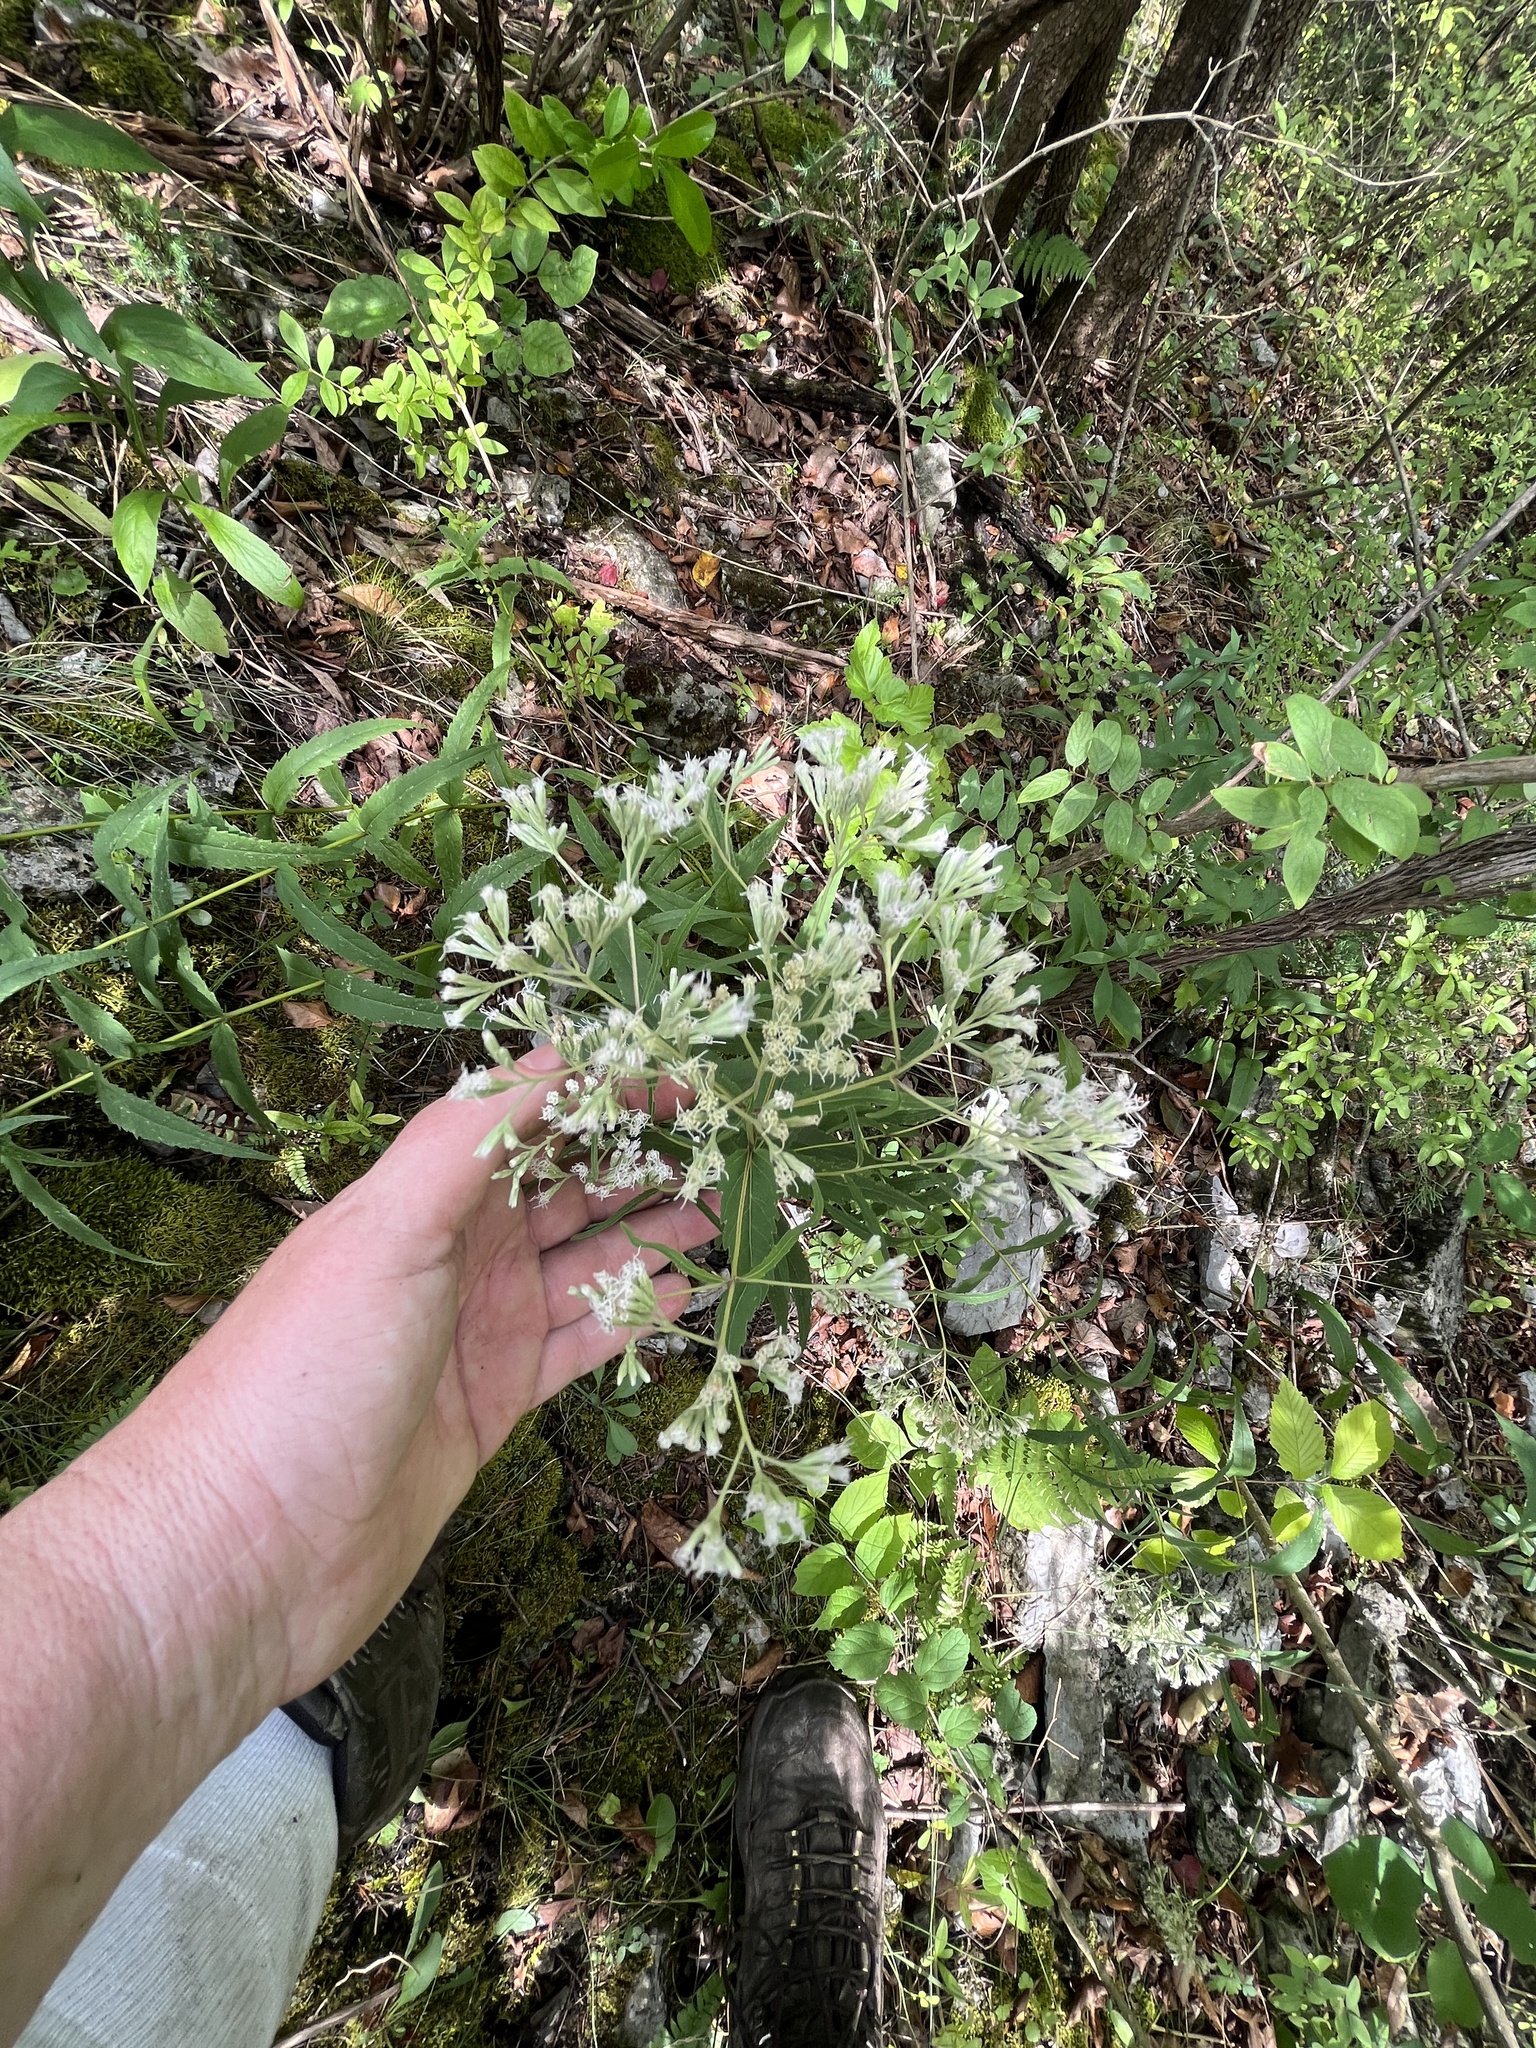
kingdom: Plantae
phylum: Tracheophyta
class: Magnoliopsida
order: Asterales
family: Asteraceae
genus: Eupatorium
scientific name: Eupatorium sessilifolium
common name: Upland boneset
